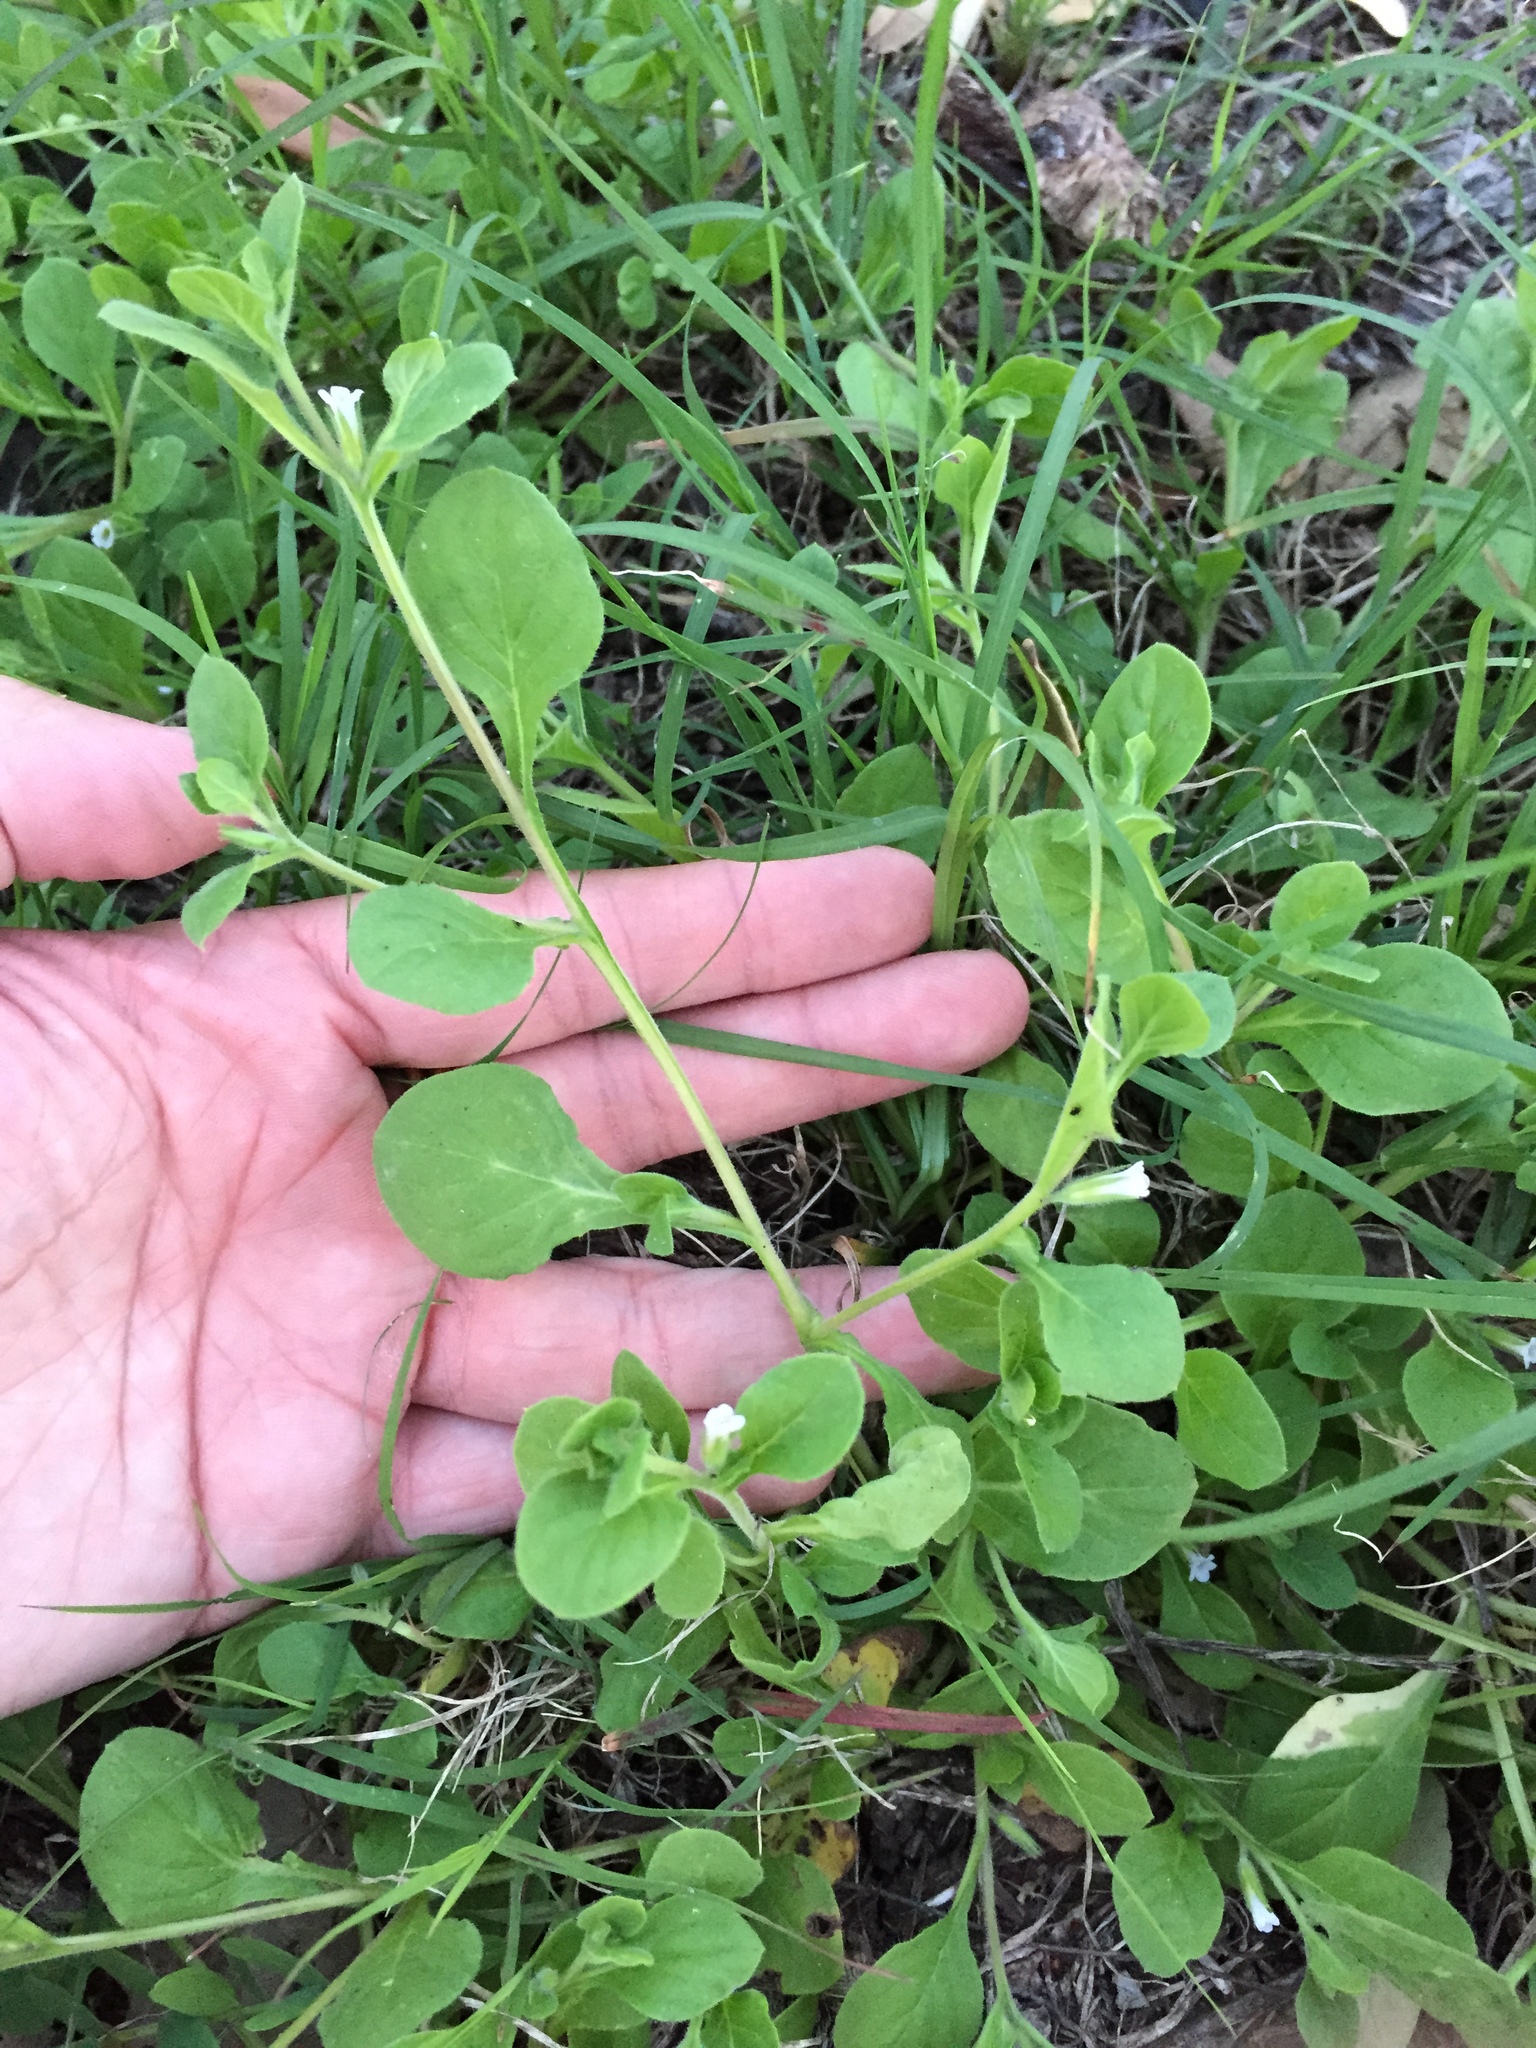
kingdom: Plantae
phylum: Tracheophyta
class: Magnoliopsida
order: Boraginales
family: Namaceae
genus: Nama
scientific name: Nama jamaicensis
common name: Jamaicanweed
